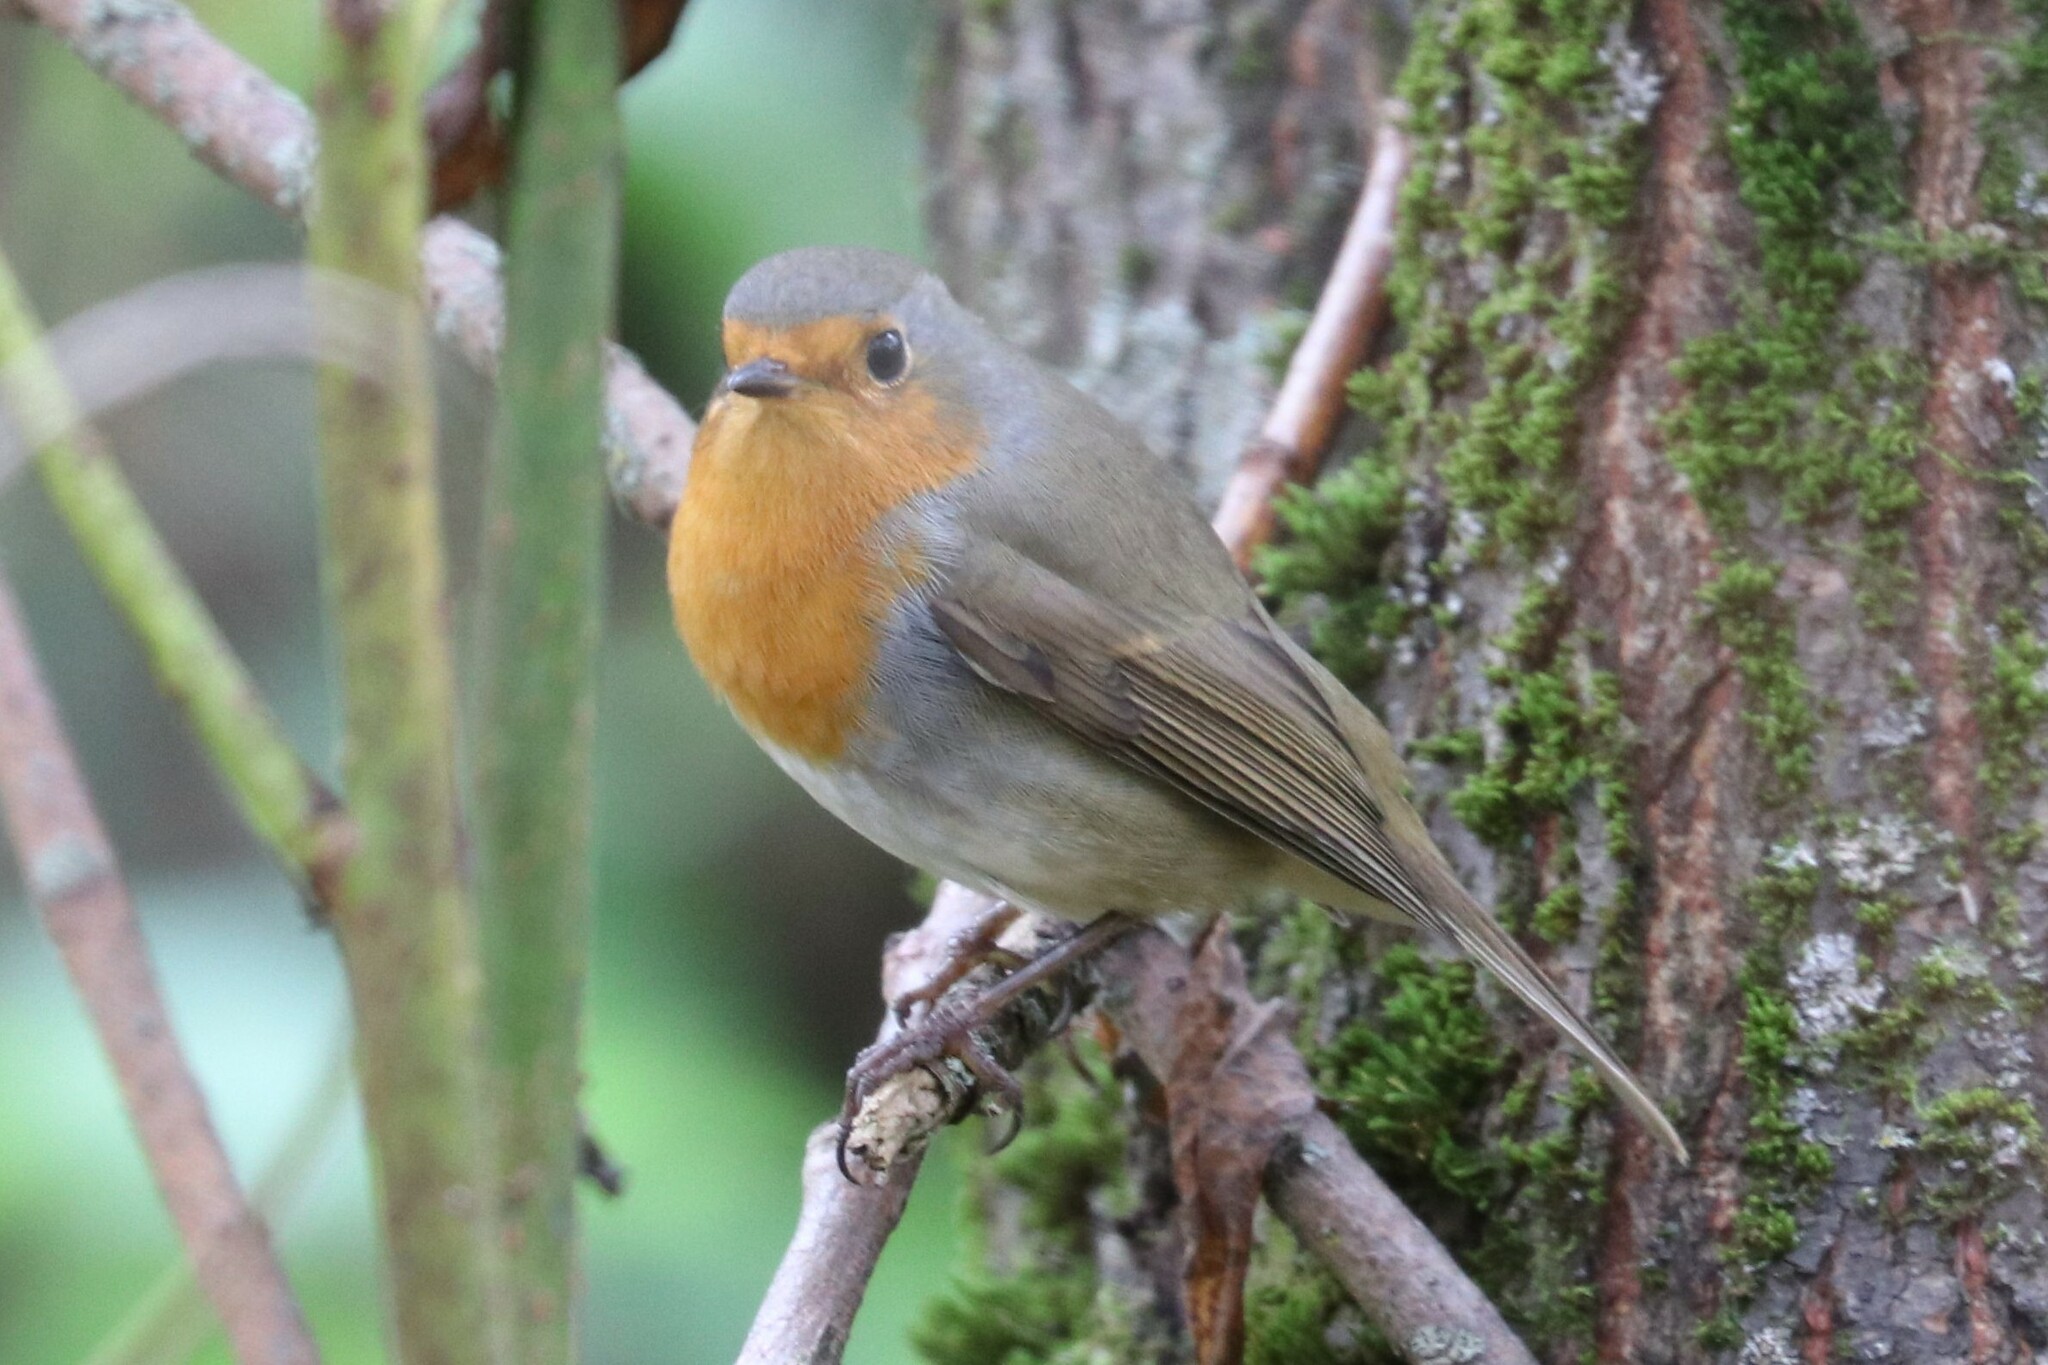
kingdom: Animalia
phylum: Chordata
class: Aves
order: Passeriformes
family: Muscicapidae
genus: Erithacus
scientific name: Erithacus rubecula
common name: European robin
